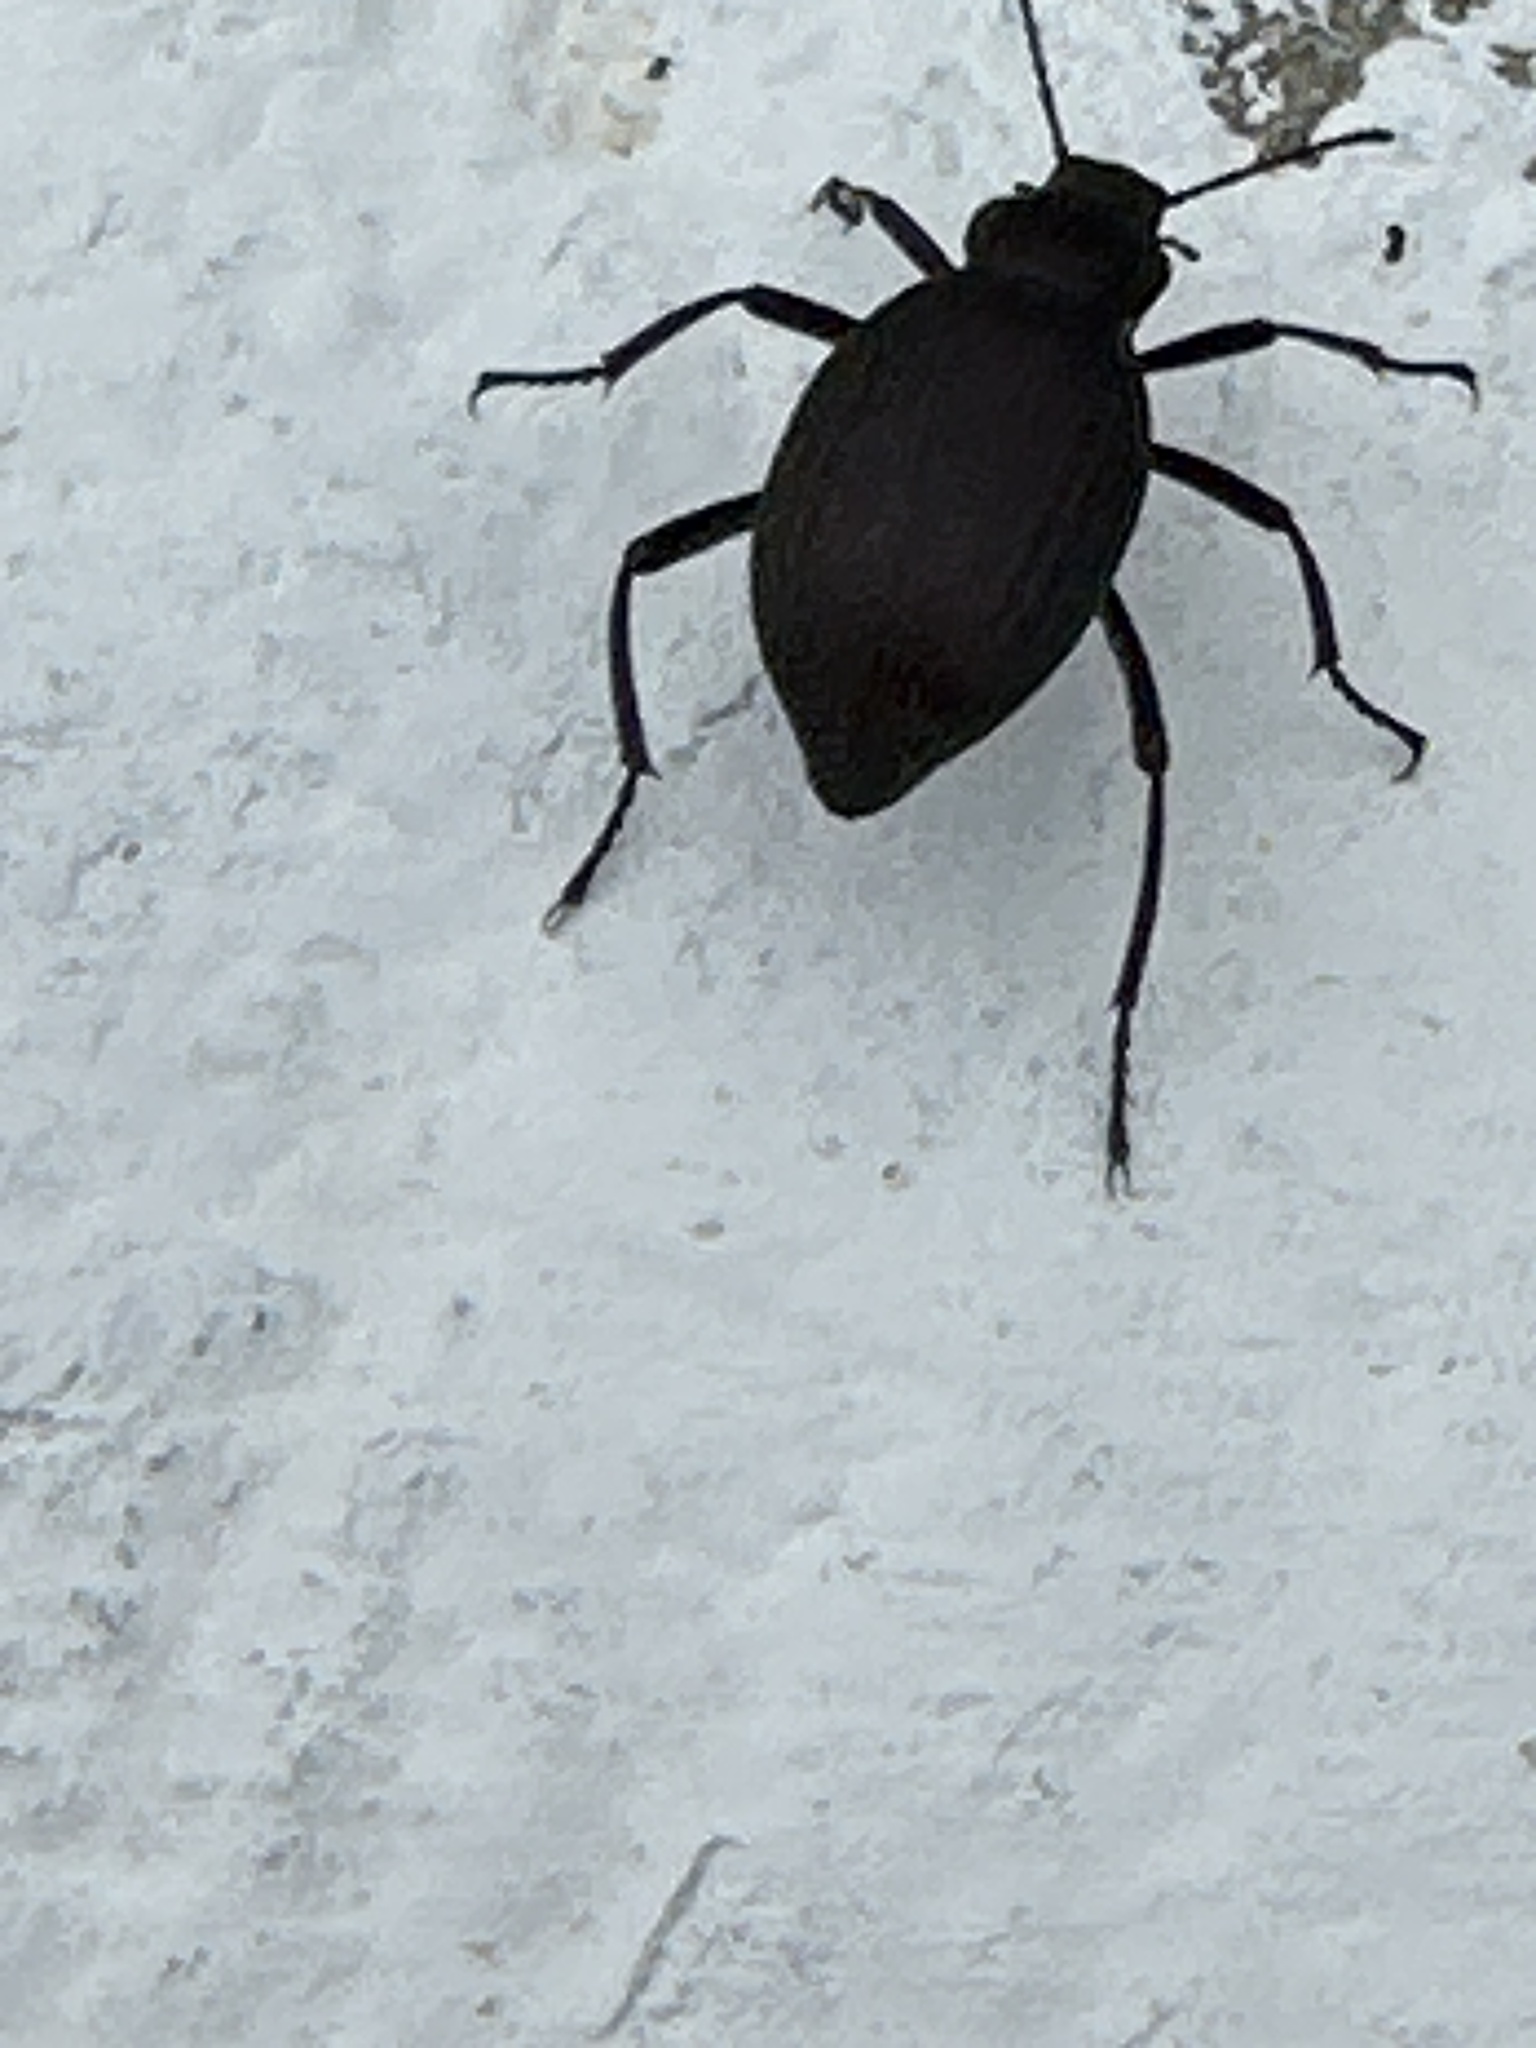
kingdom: Animalia
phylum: Arthropoda
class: Insecta
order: Coleoptera
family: Tenebrionidae
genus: Eleodes
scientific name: Eleodes hispilabris
